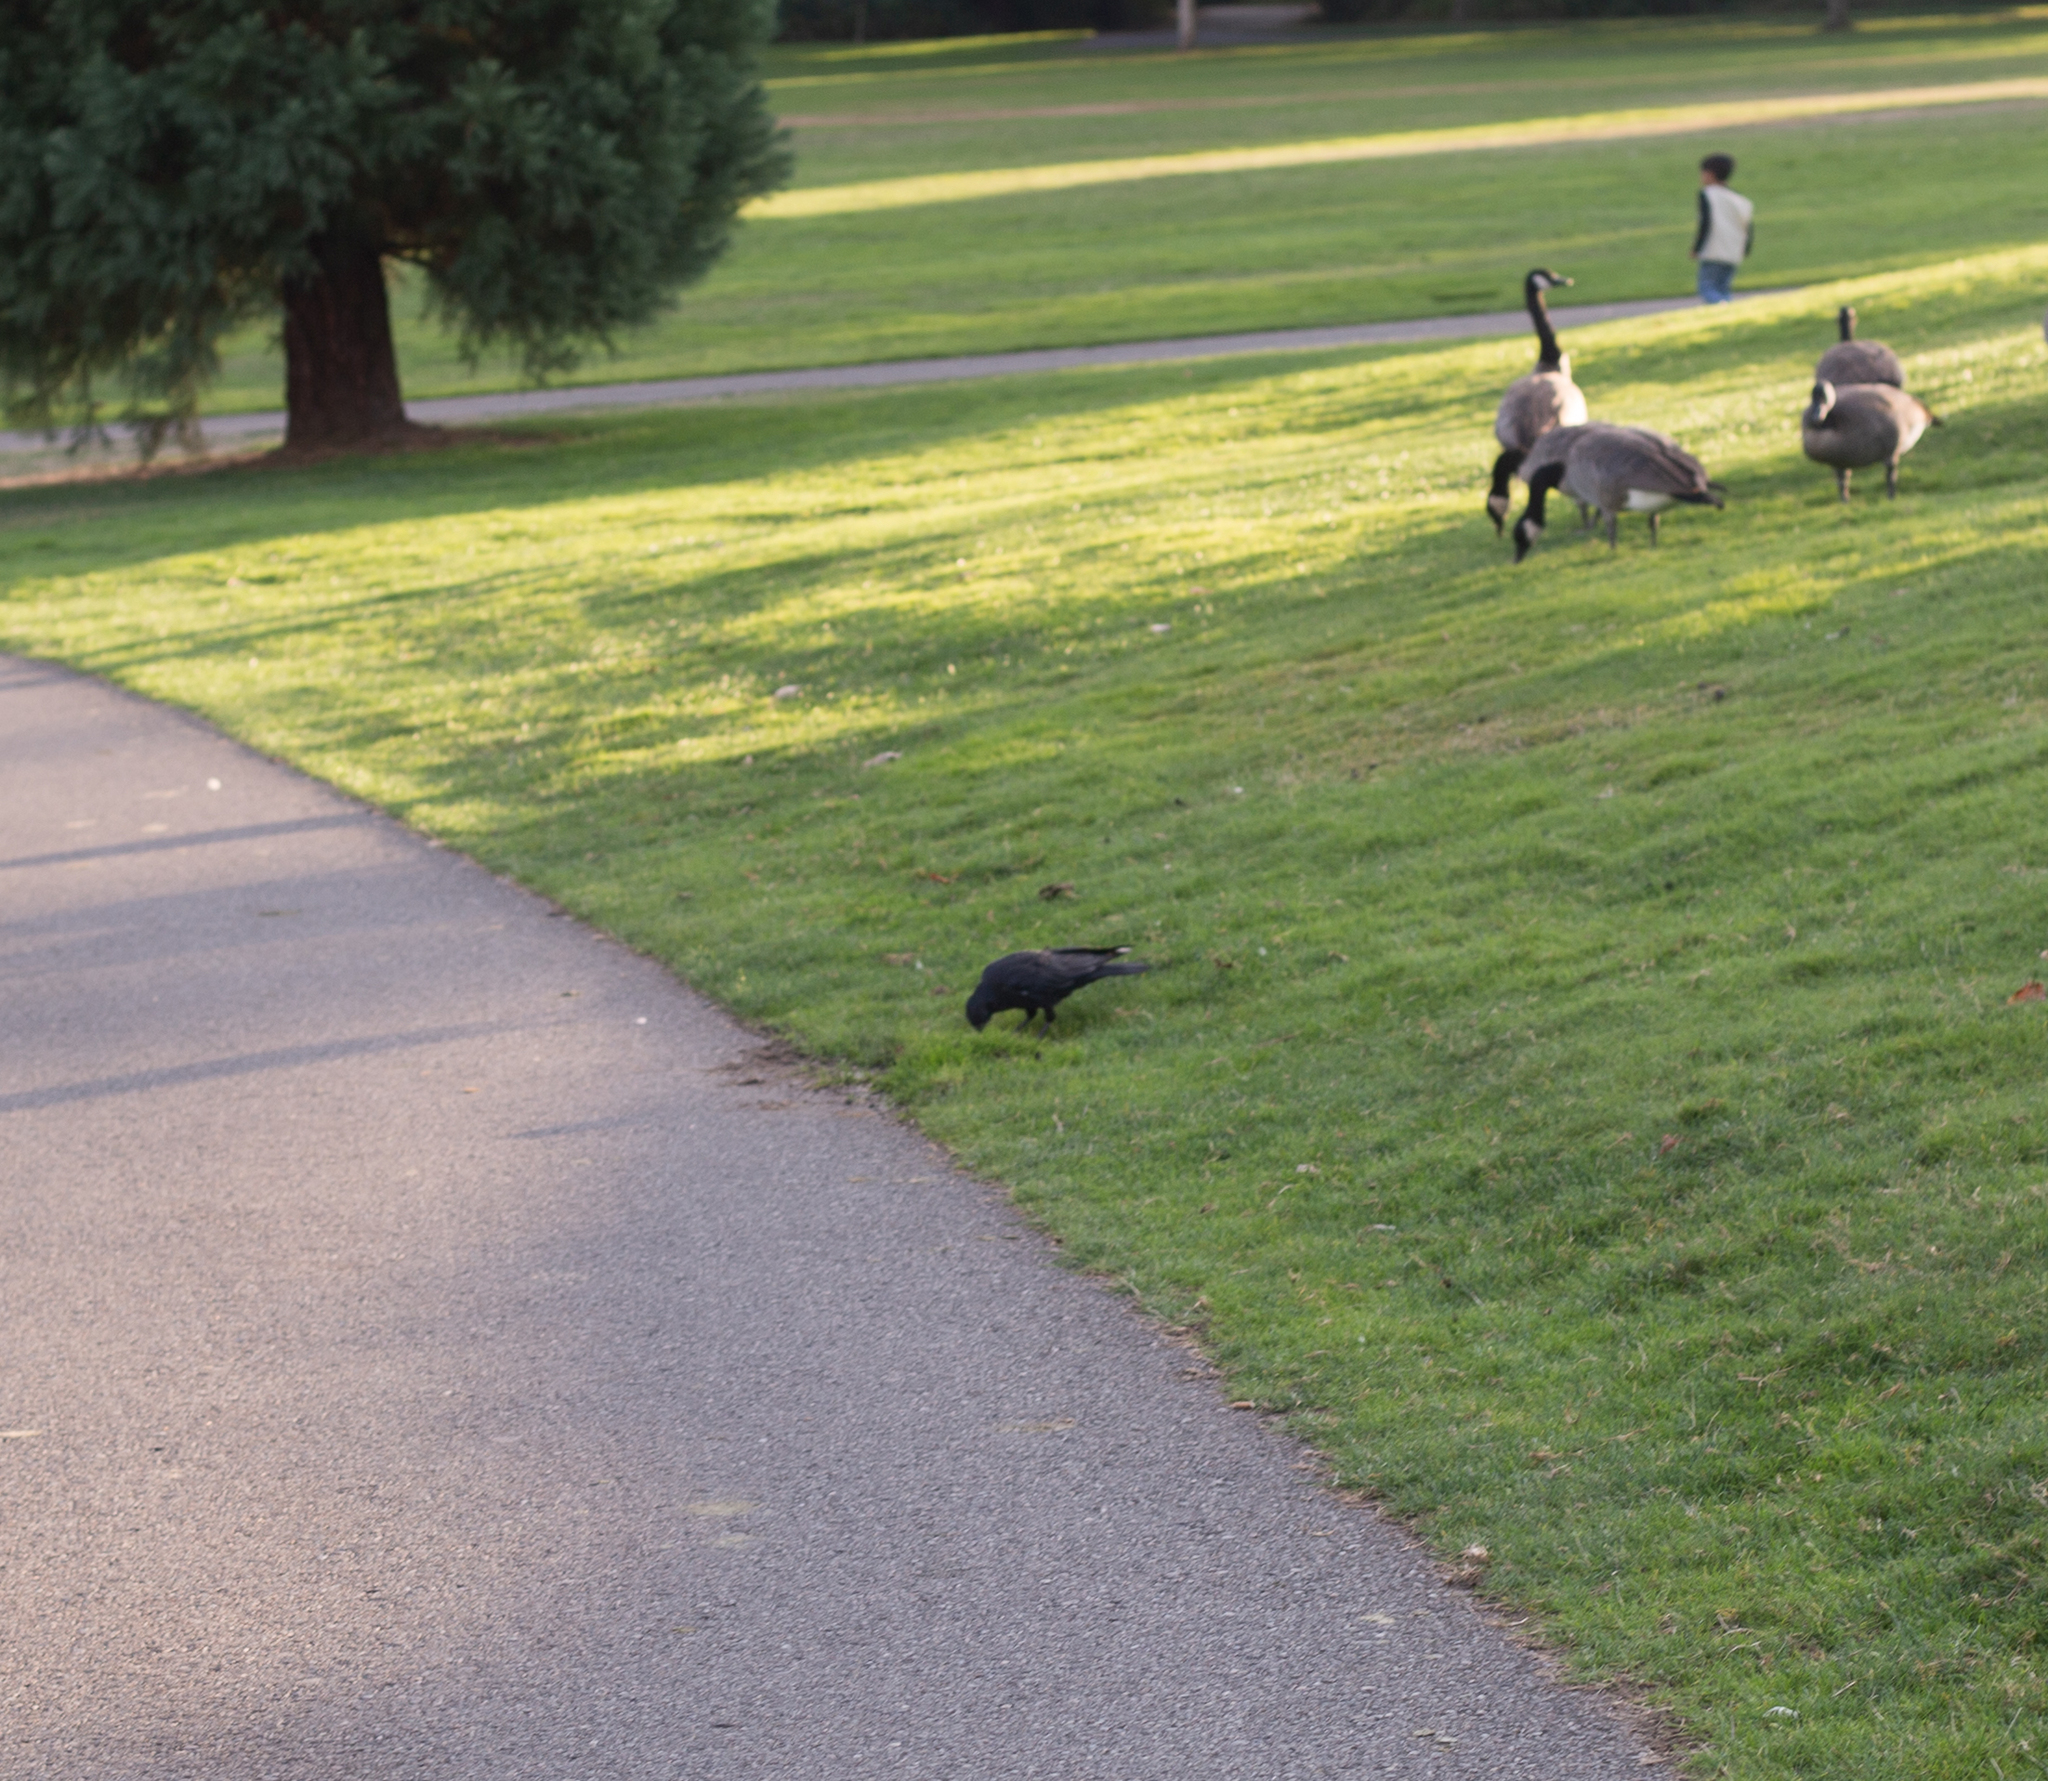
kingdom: Animalia
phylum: Chordata
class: Aves
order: Passeriformes
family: Corvidae
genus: Corvus
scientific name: Corvus brachyrhynchos
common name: American crow
